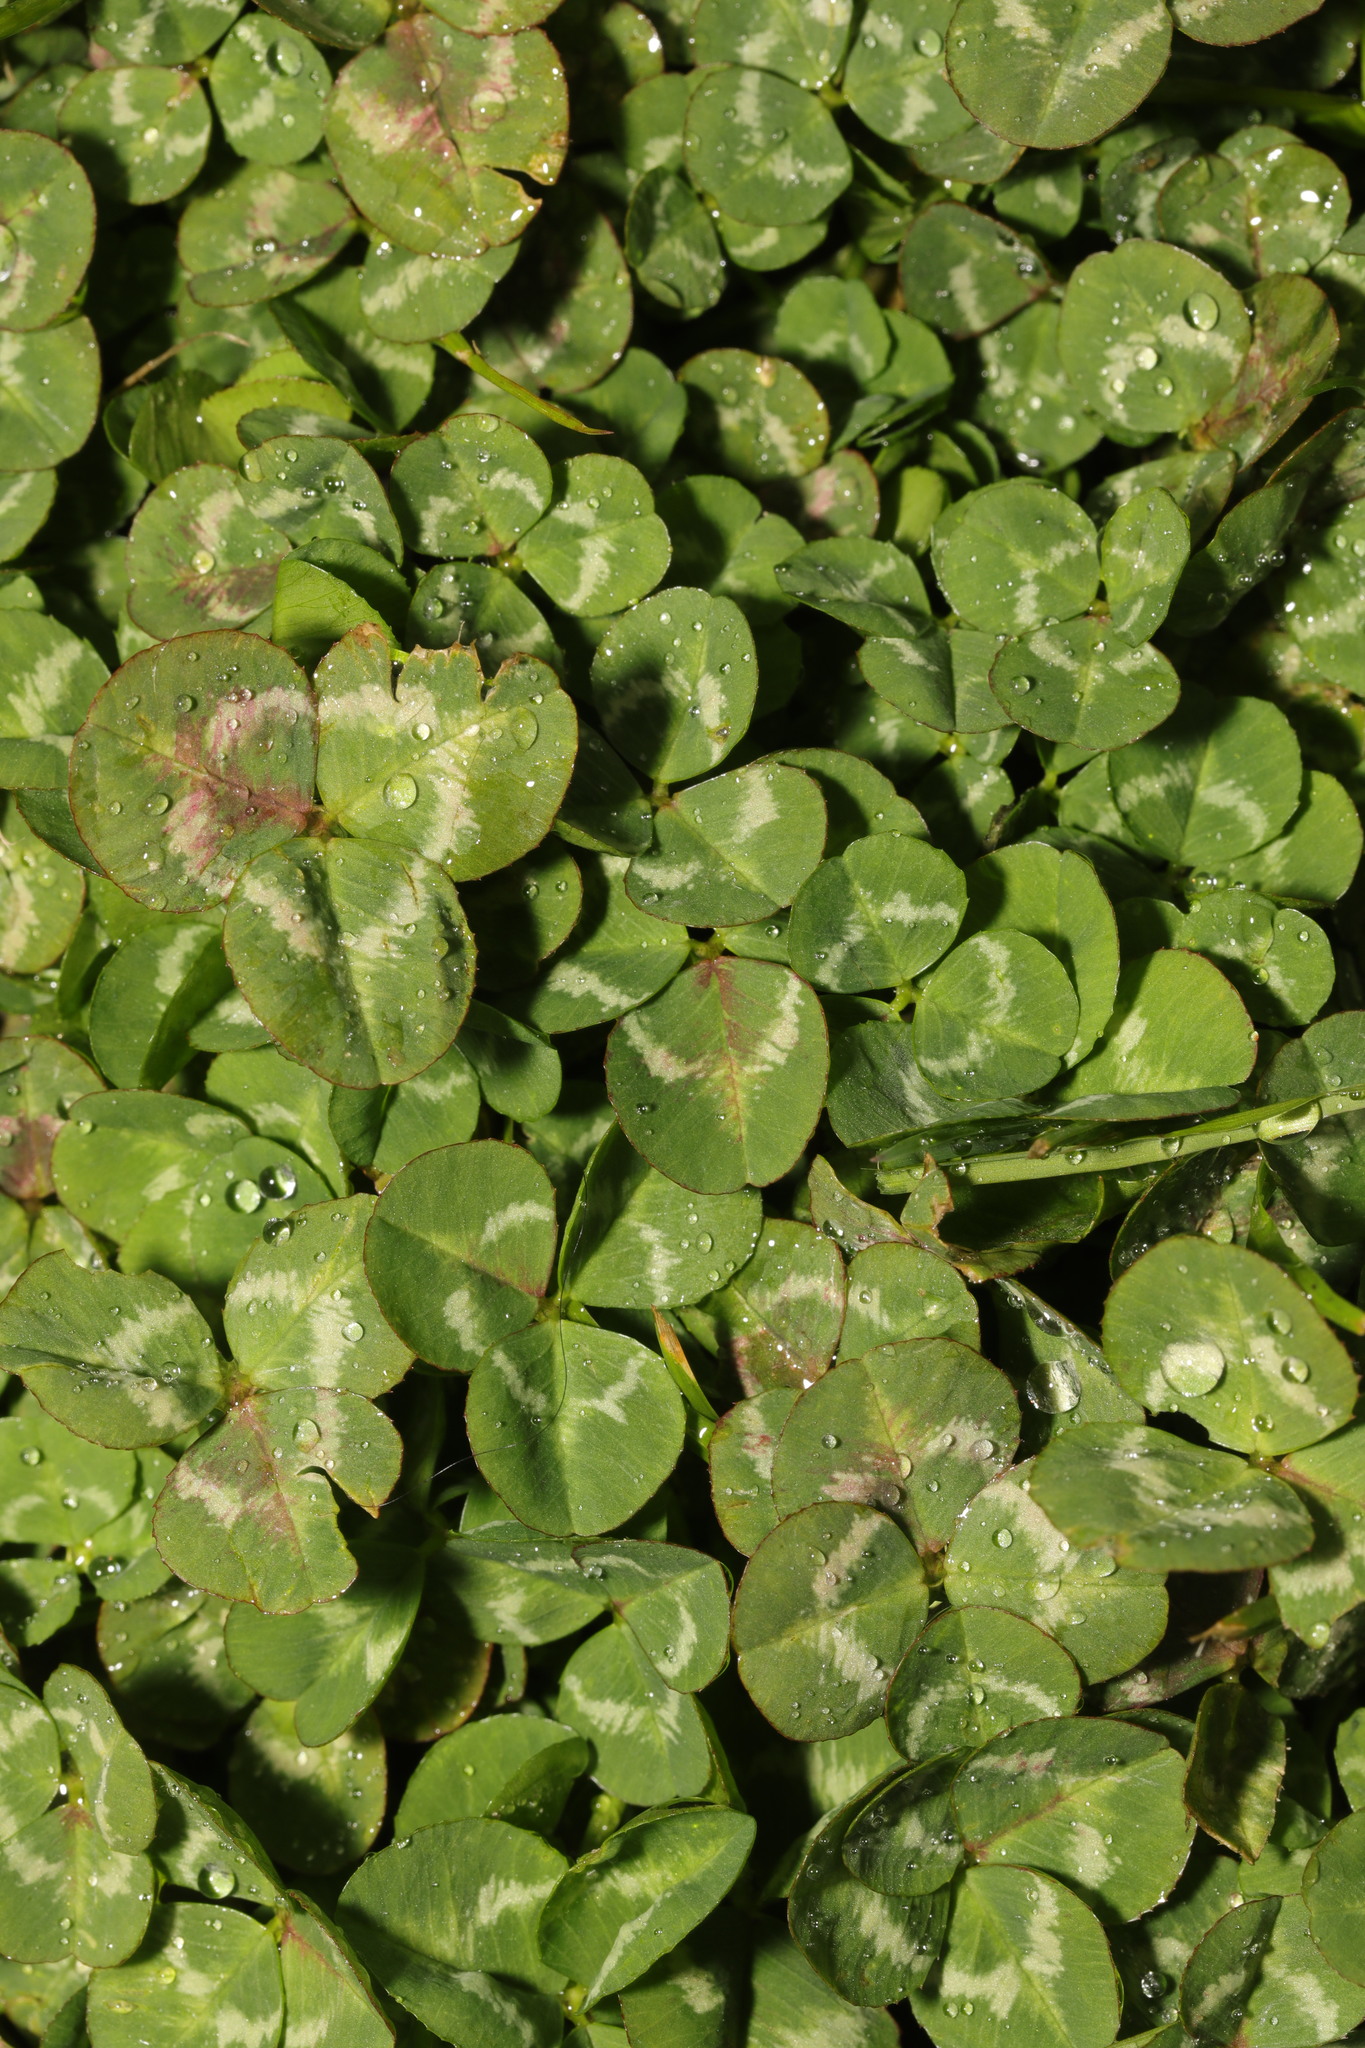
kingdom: Plantae
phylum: Tracheophyta
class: Magnoliopsida
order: Fabales
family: Fabaceae
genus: Trifolium
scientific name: Trifolium repens
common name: White clover
